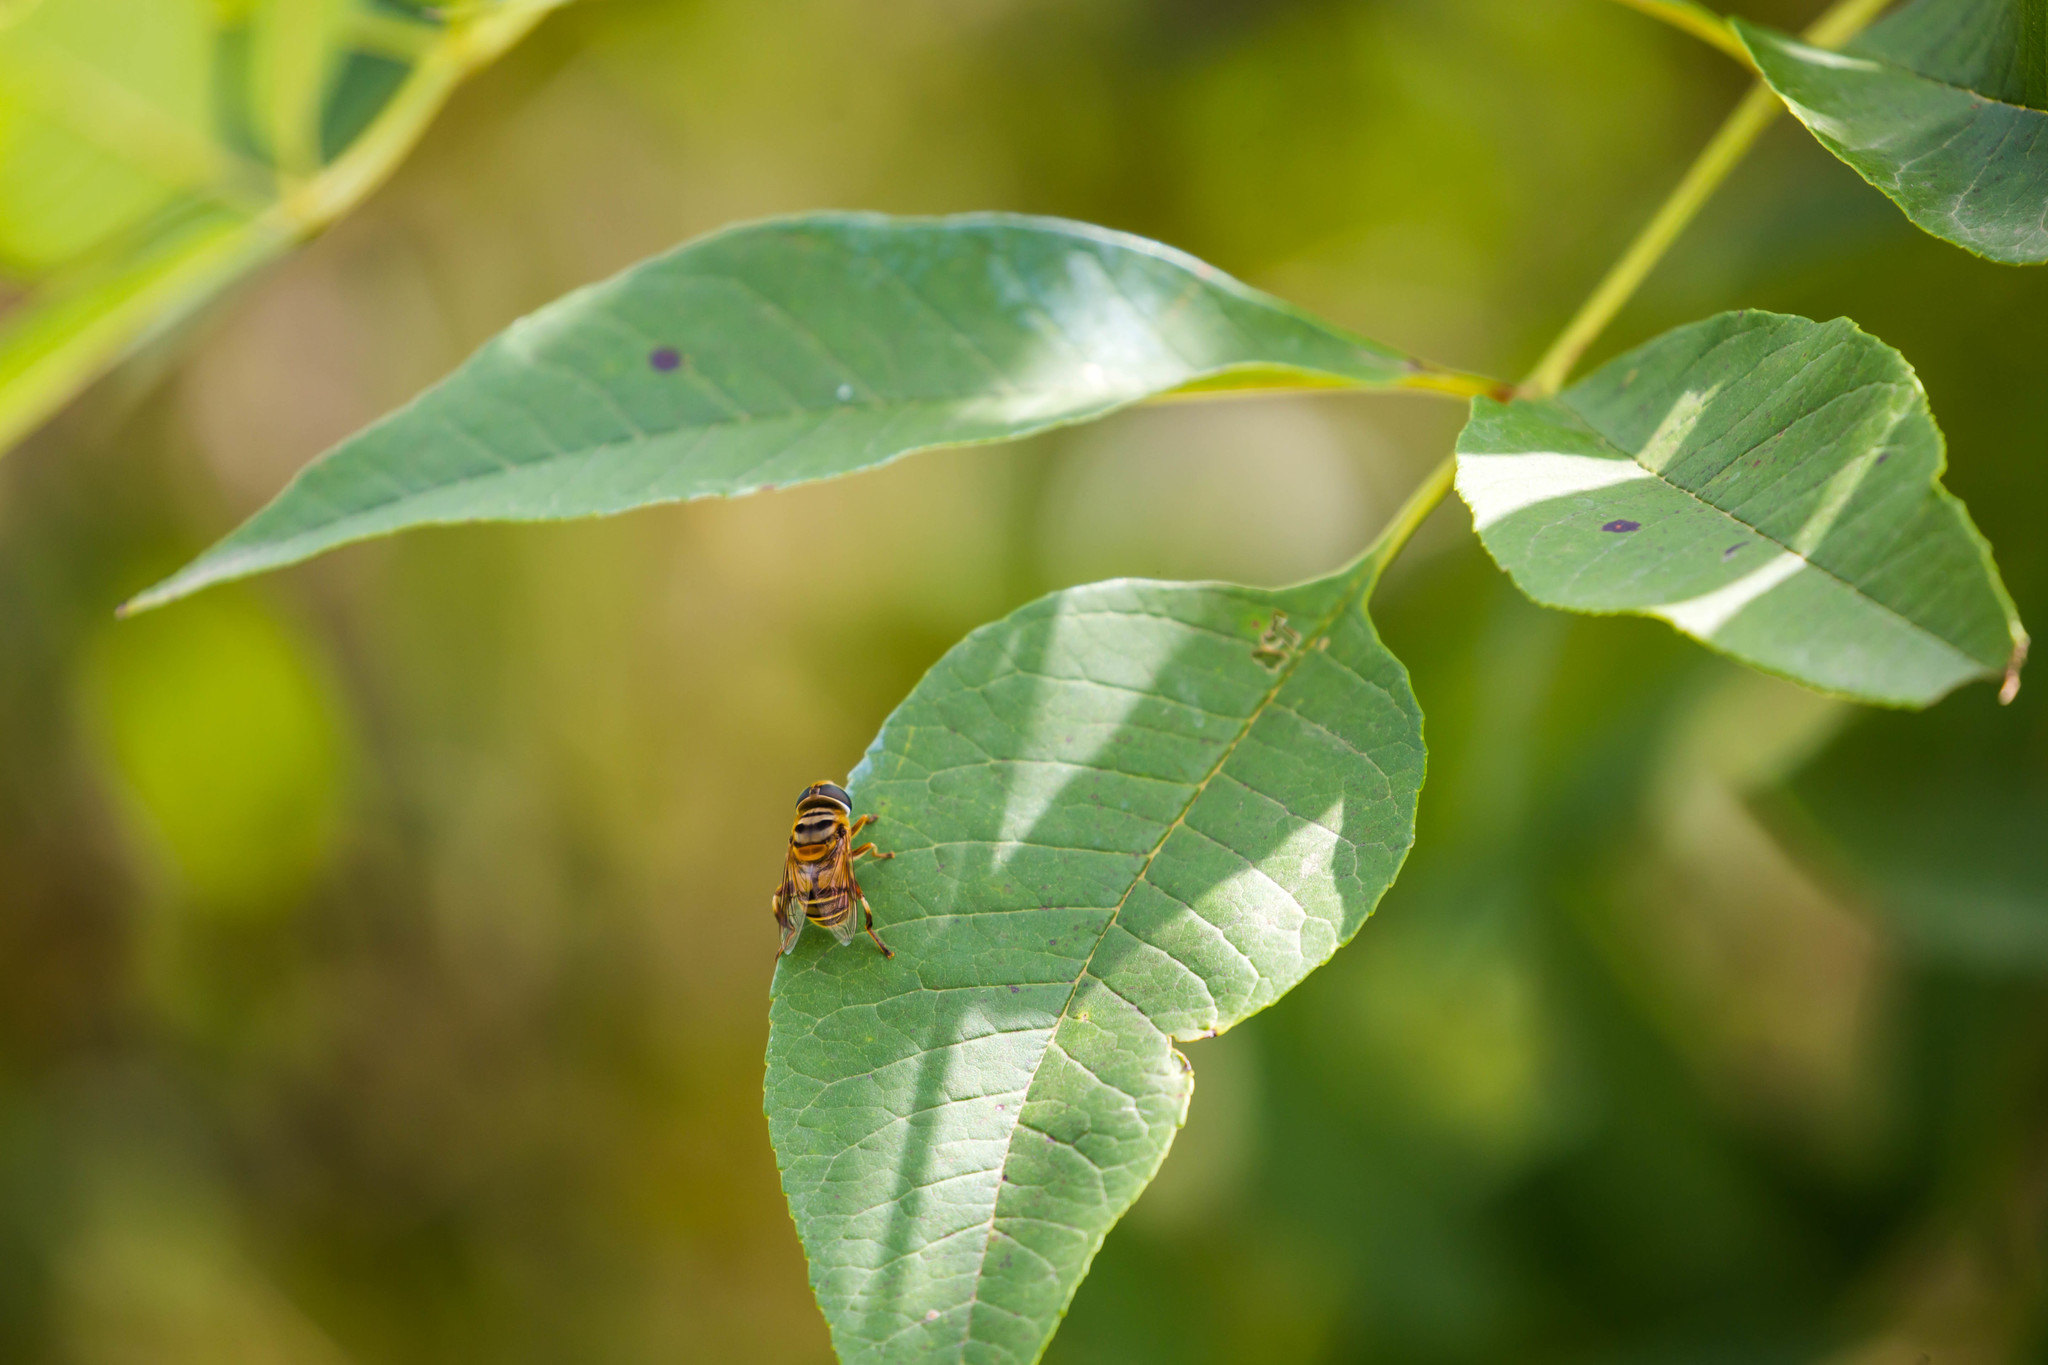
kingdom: Animalia
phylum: Arthropoda
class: Insecta
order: Diptera
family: Syrphidae
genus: Palpada
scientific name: Palpada vinetorum
